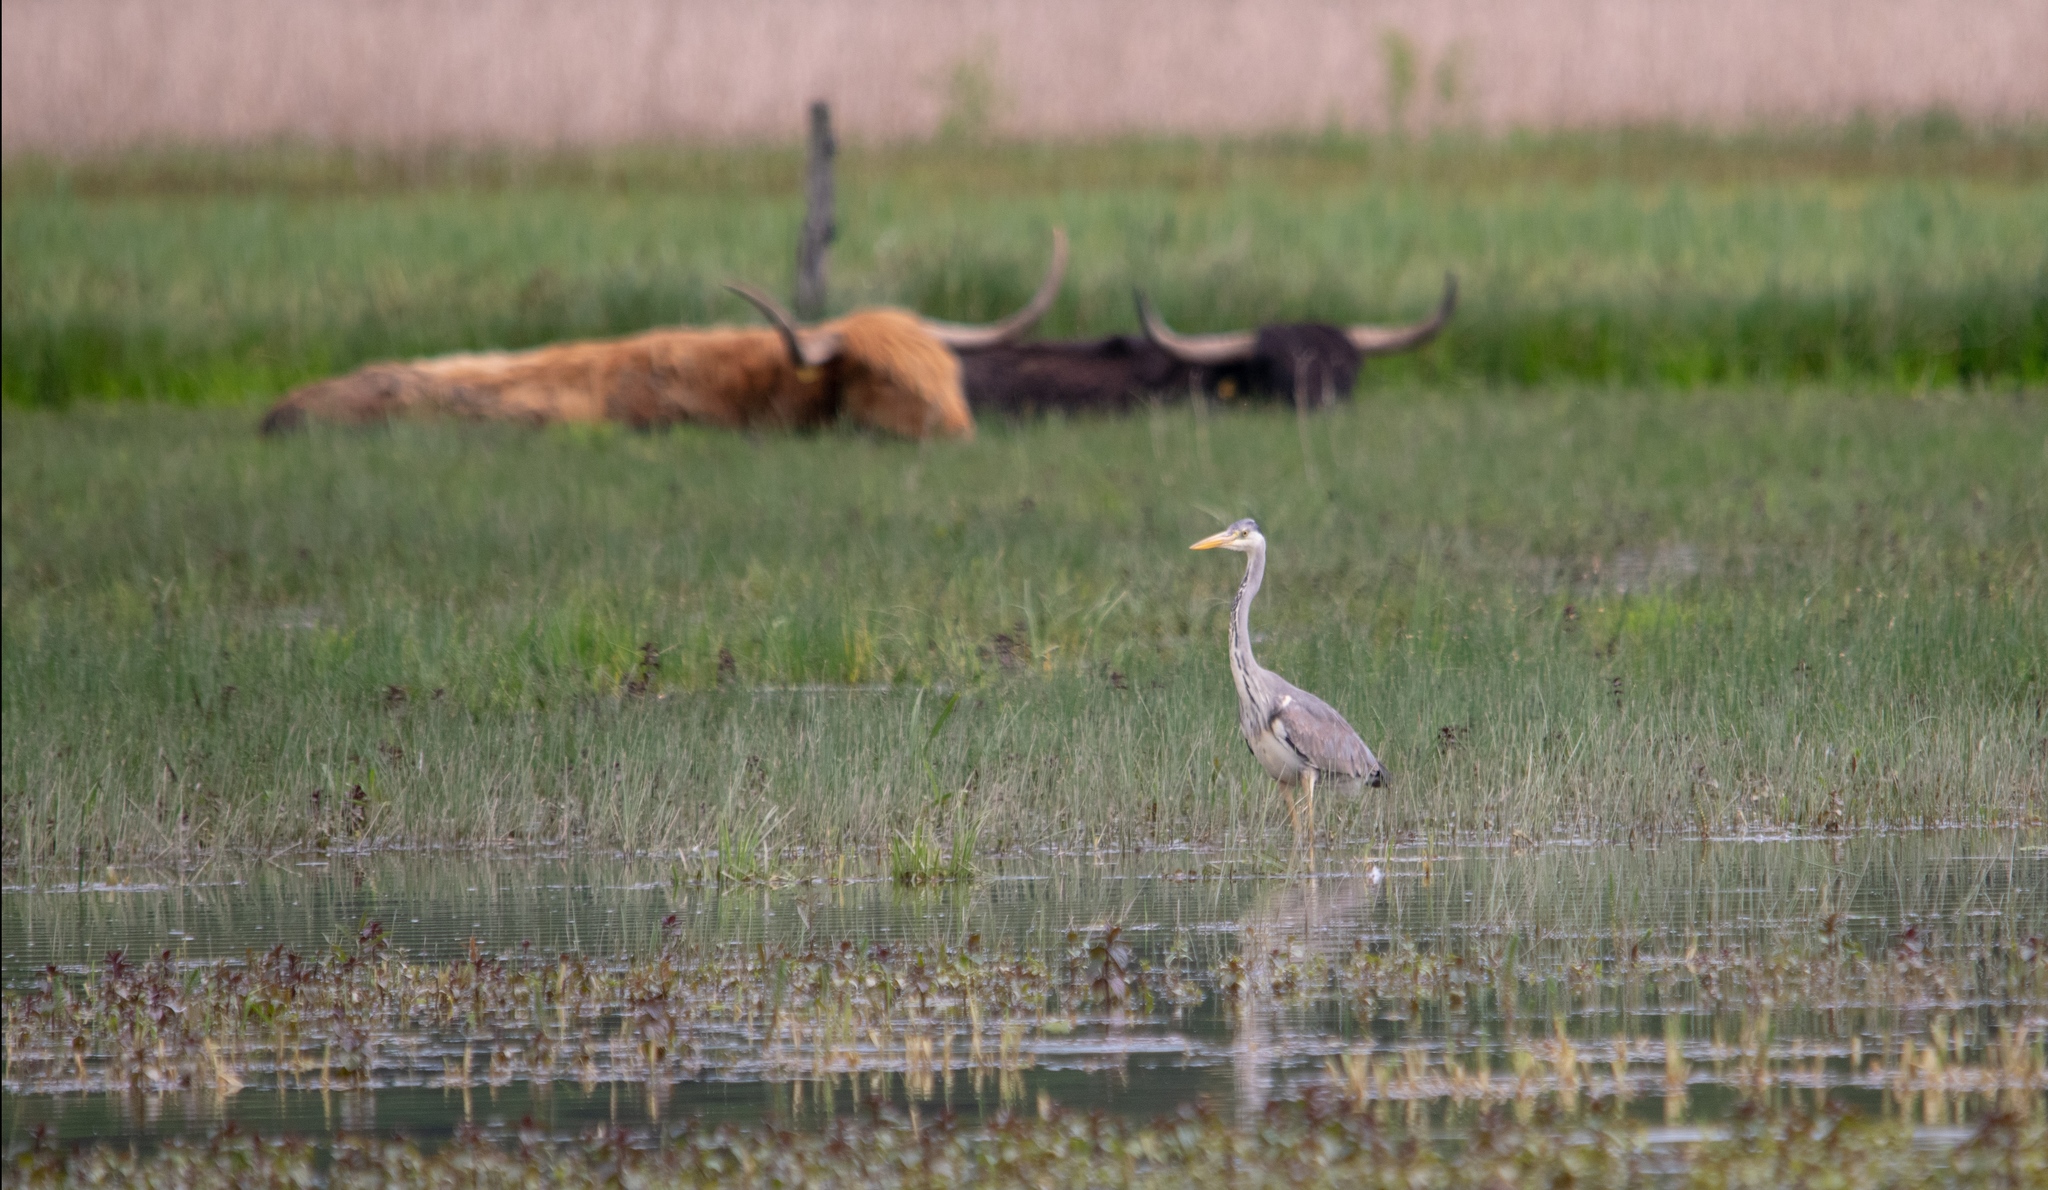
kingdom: Animalia
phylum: Chordata
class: Aves
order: Pelecaniformes
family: Ardeidae
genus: Ardea
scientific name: Ardea cinerea
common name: Grey heron
